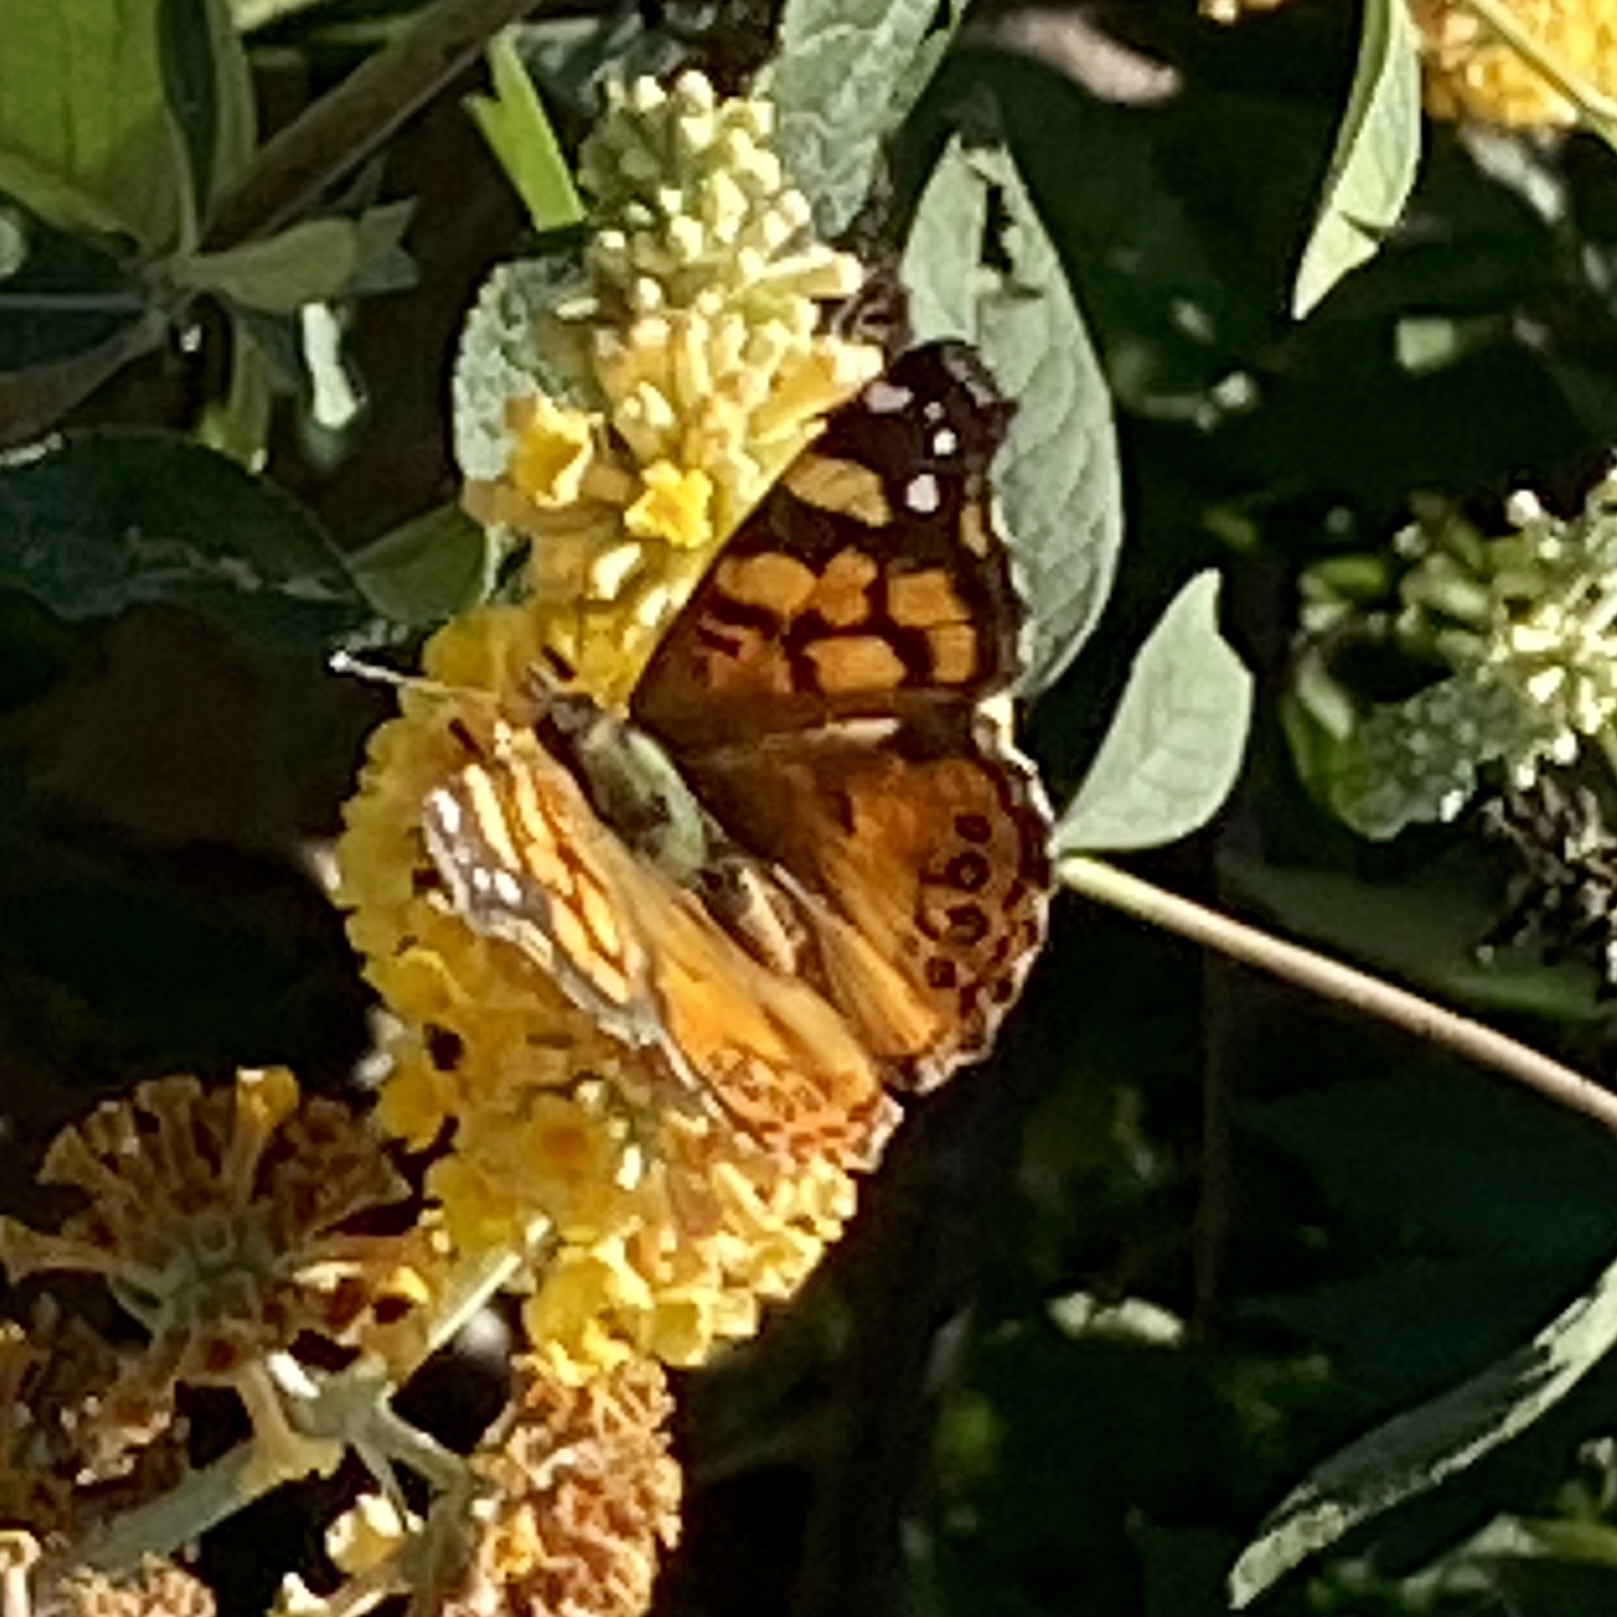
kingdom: Animalia
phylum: Arthropoda
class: Insecta
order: Lepidoptera
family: Nymphalidae
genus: Vanessa
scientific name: Vanessa annabella
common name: West coast lady
